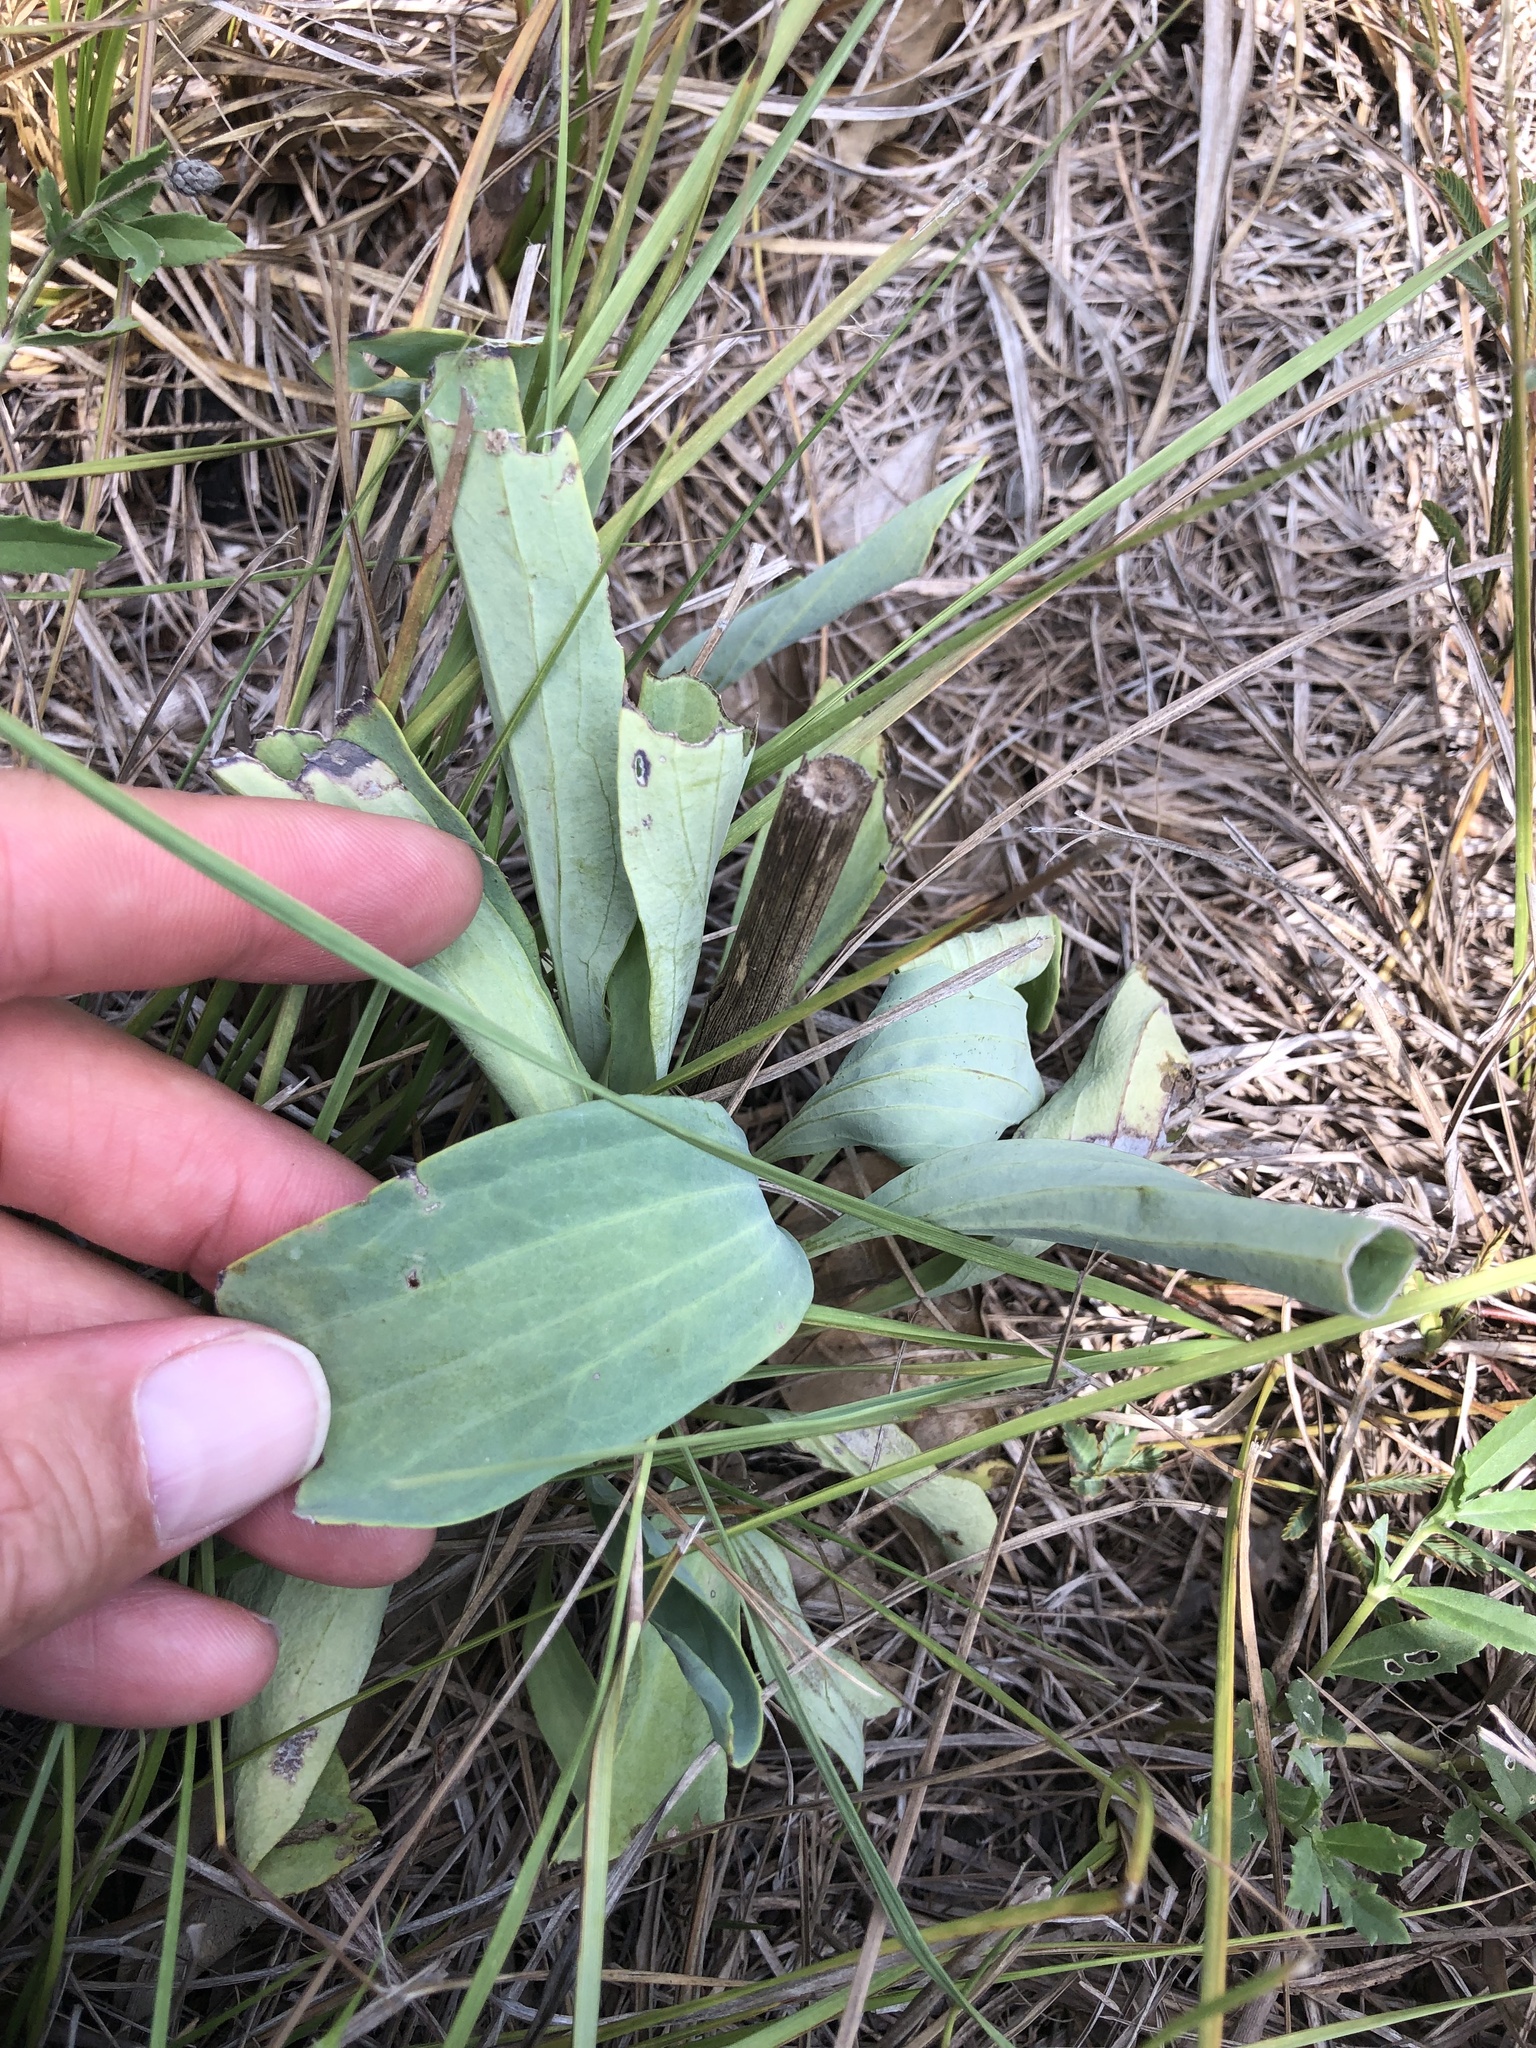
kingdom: Plantae
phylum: Tracheophyta
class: Magnoliopsida
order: Asterales
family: Asteraceae
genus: Arnoglossum
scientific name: Arnoglossum ovatum
